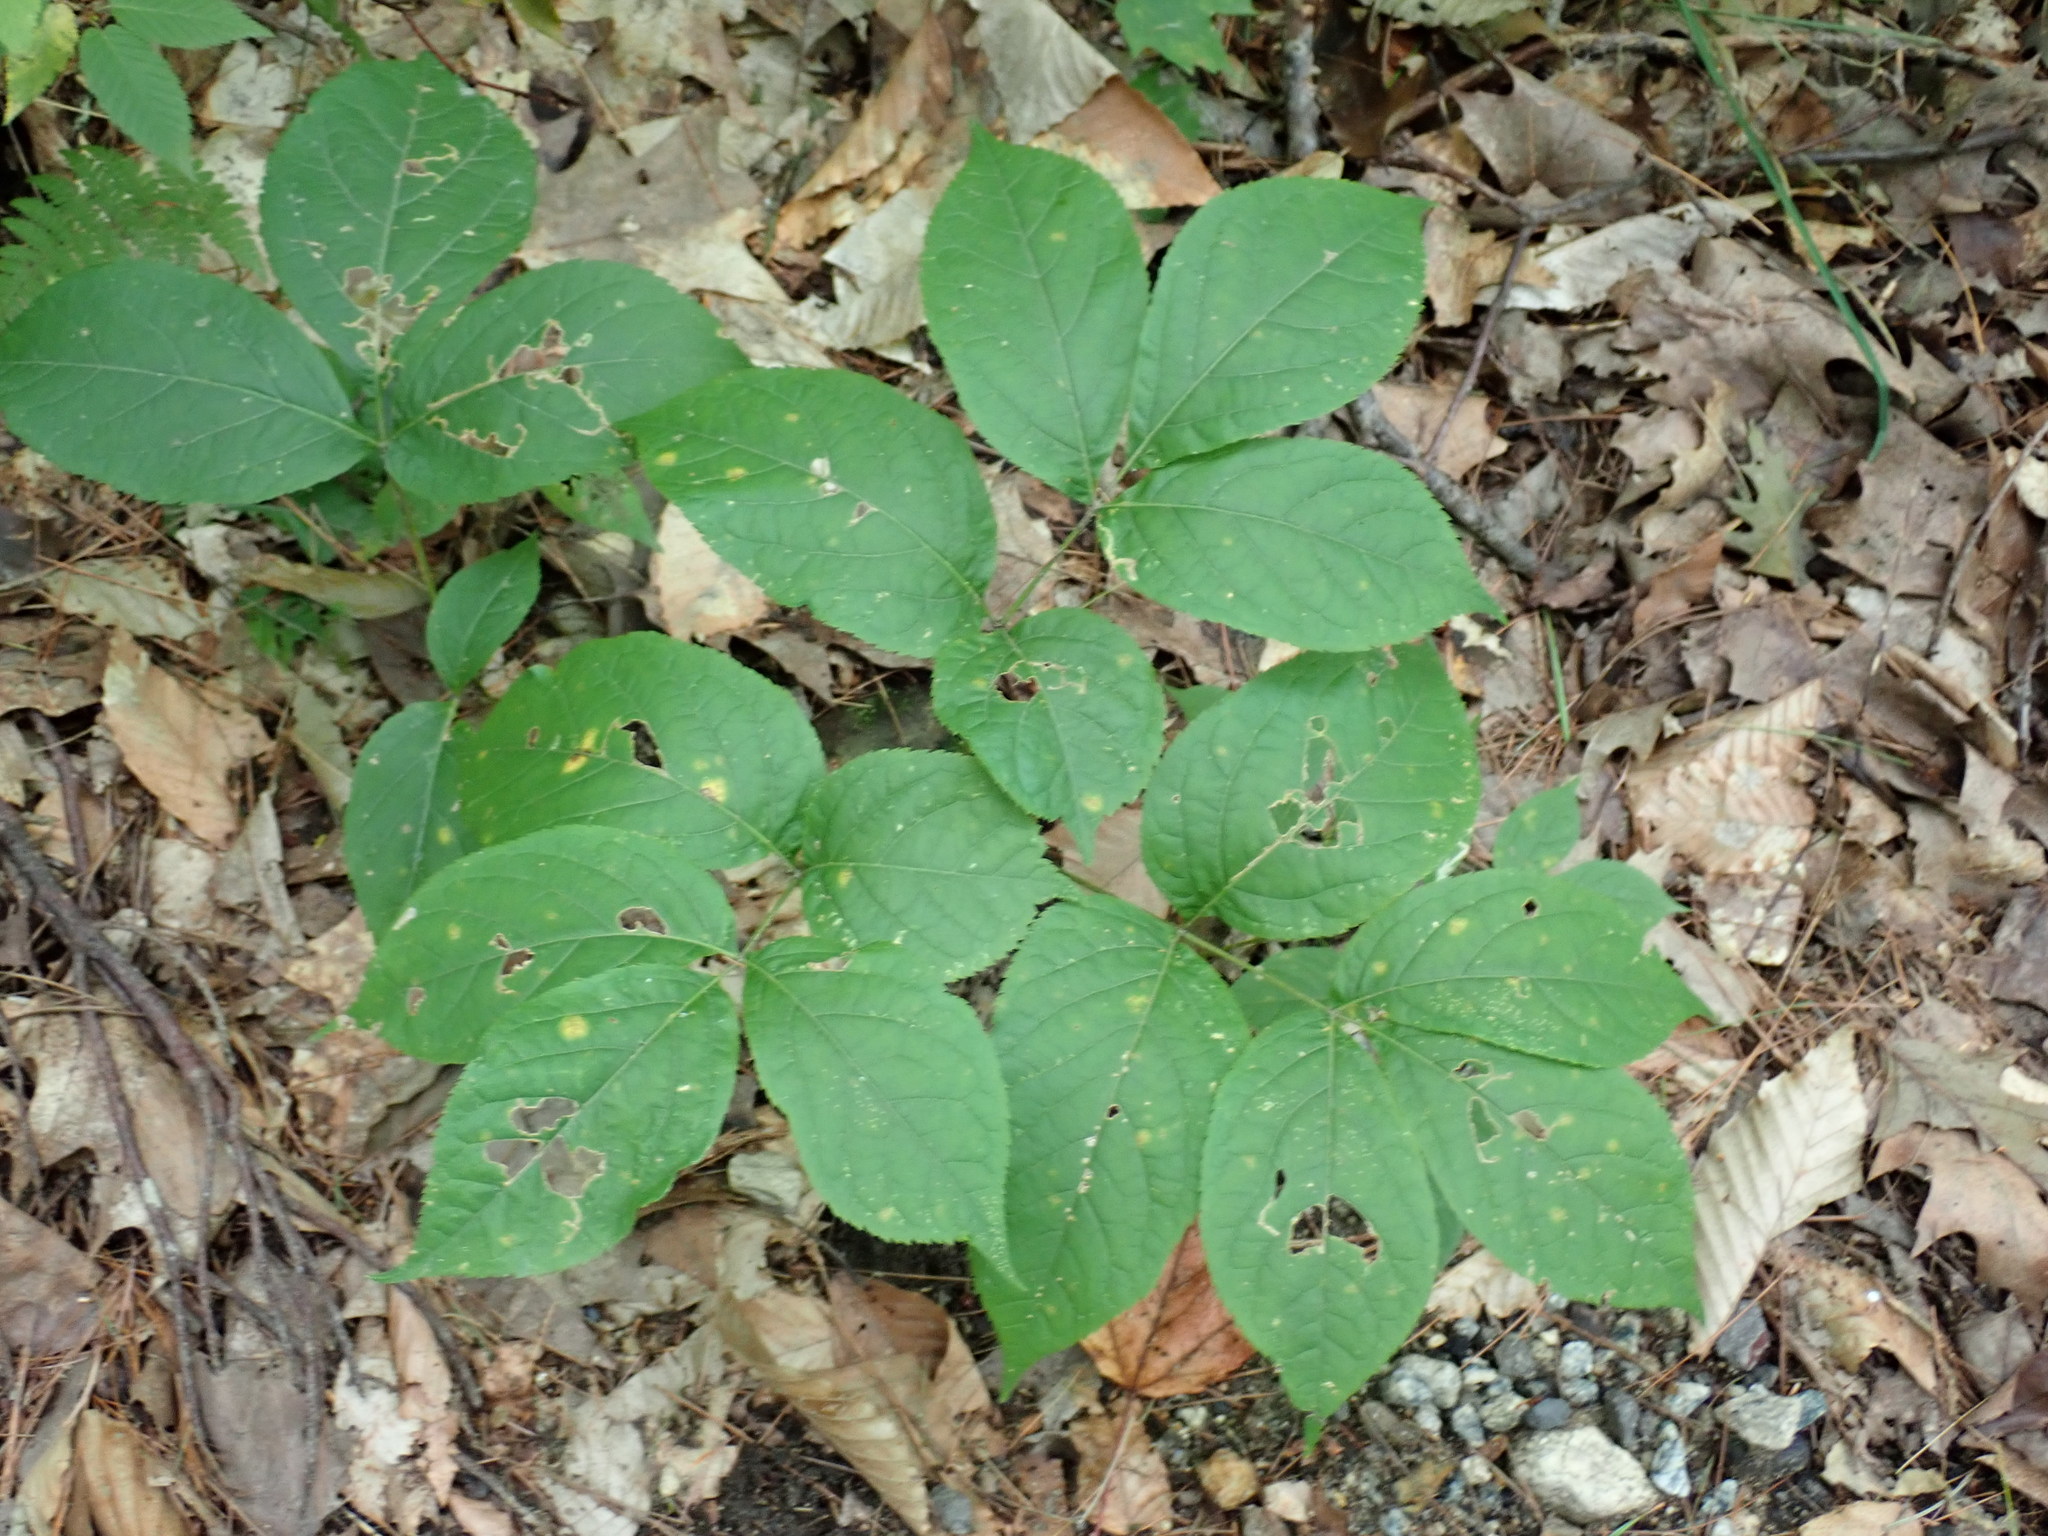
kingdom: Plantae
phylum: Tracheophyta
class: Magnoliopsida
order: Apiales
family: Araliaceae
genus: Aralia
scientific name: Aralia nudicaulis
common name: Wild sarsaparilla
